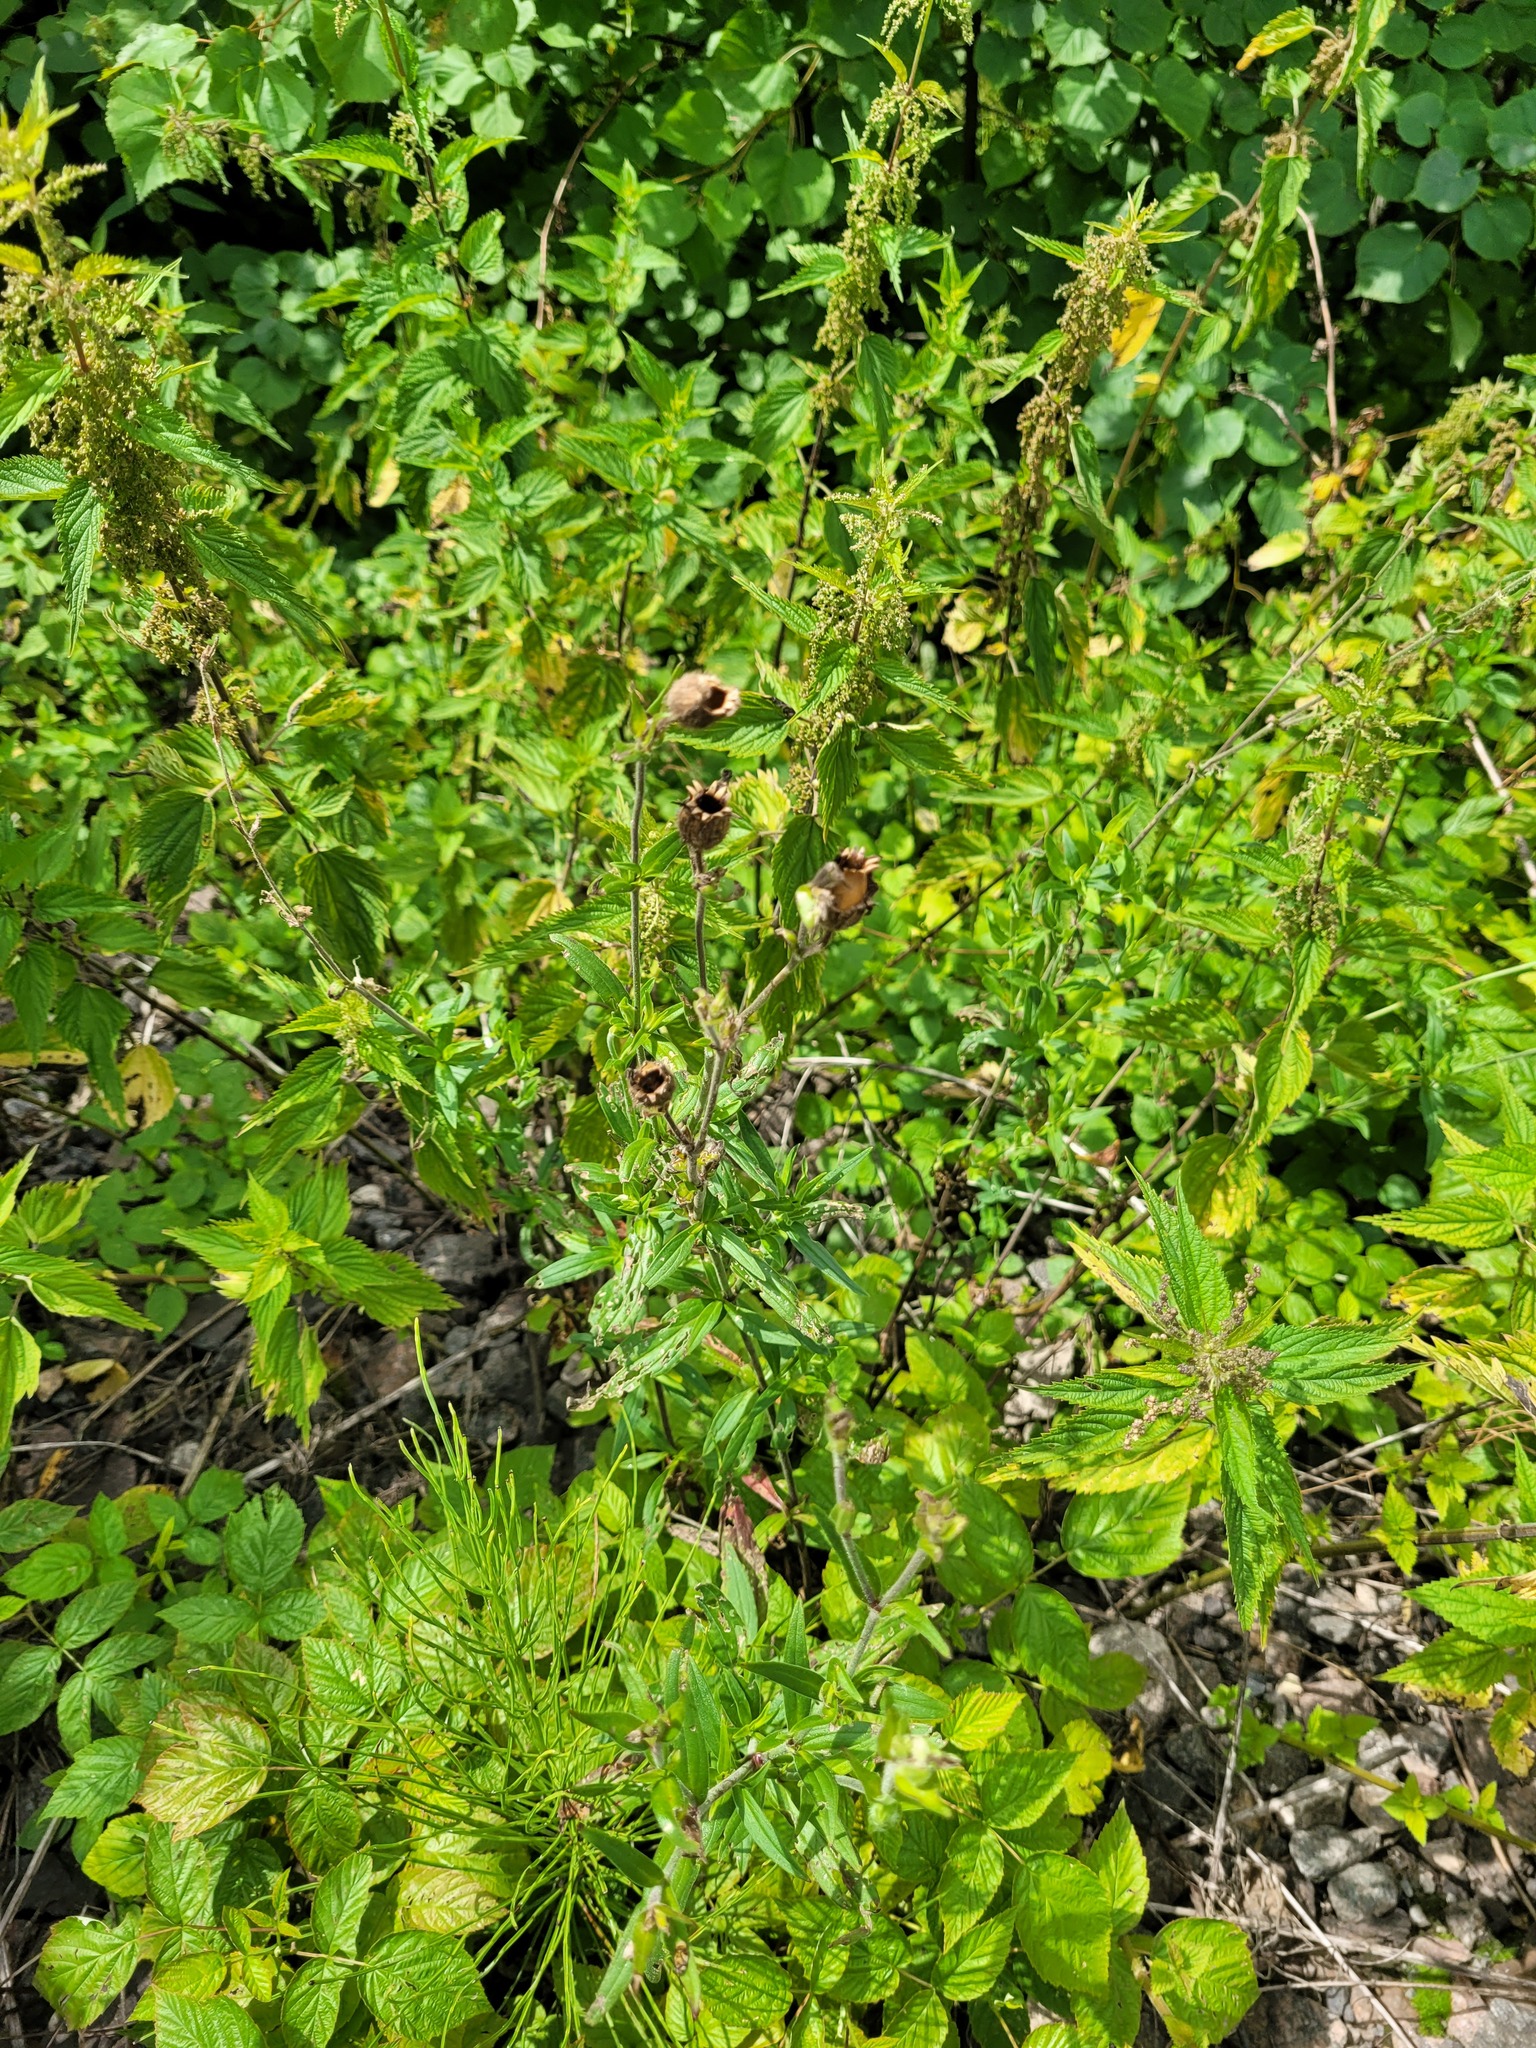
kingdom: Plantae
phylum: Tracheophyta
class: Magnoliopsida
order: Caryophyllales
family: Caryophyllaceae
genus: Silene
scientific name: Silene latifolia
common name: White campion
